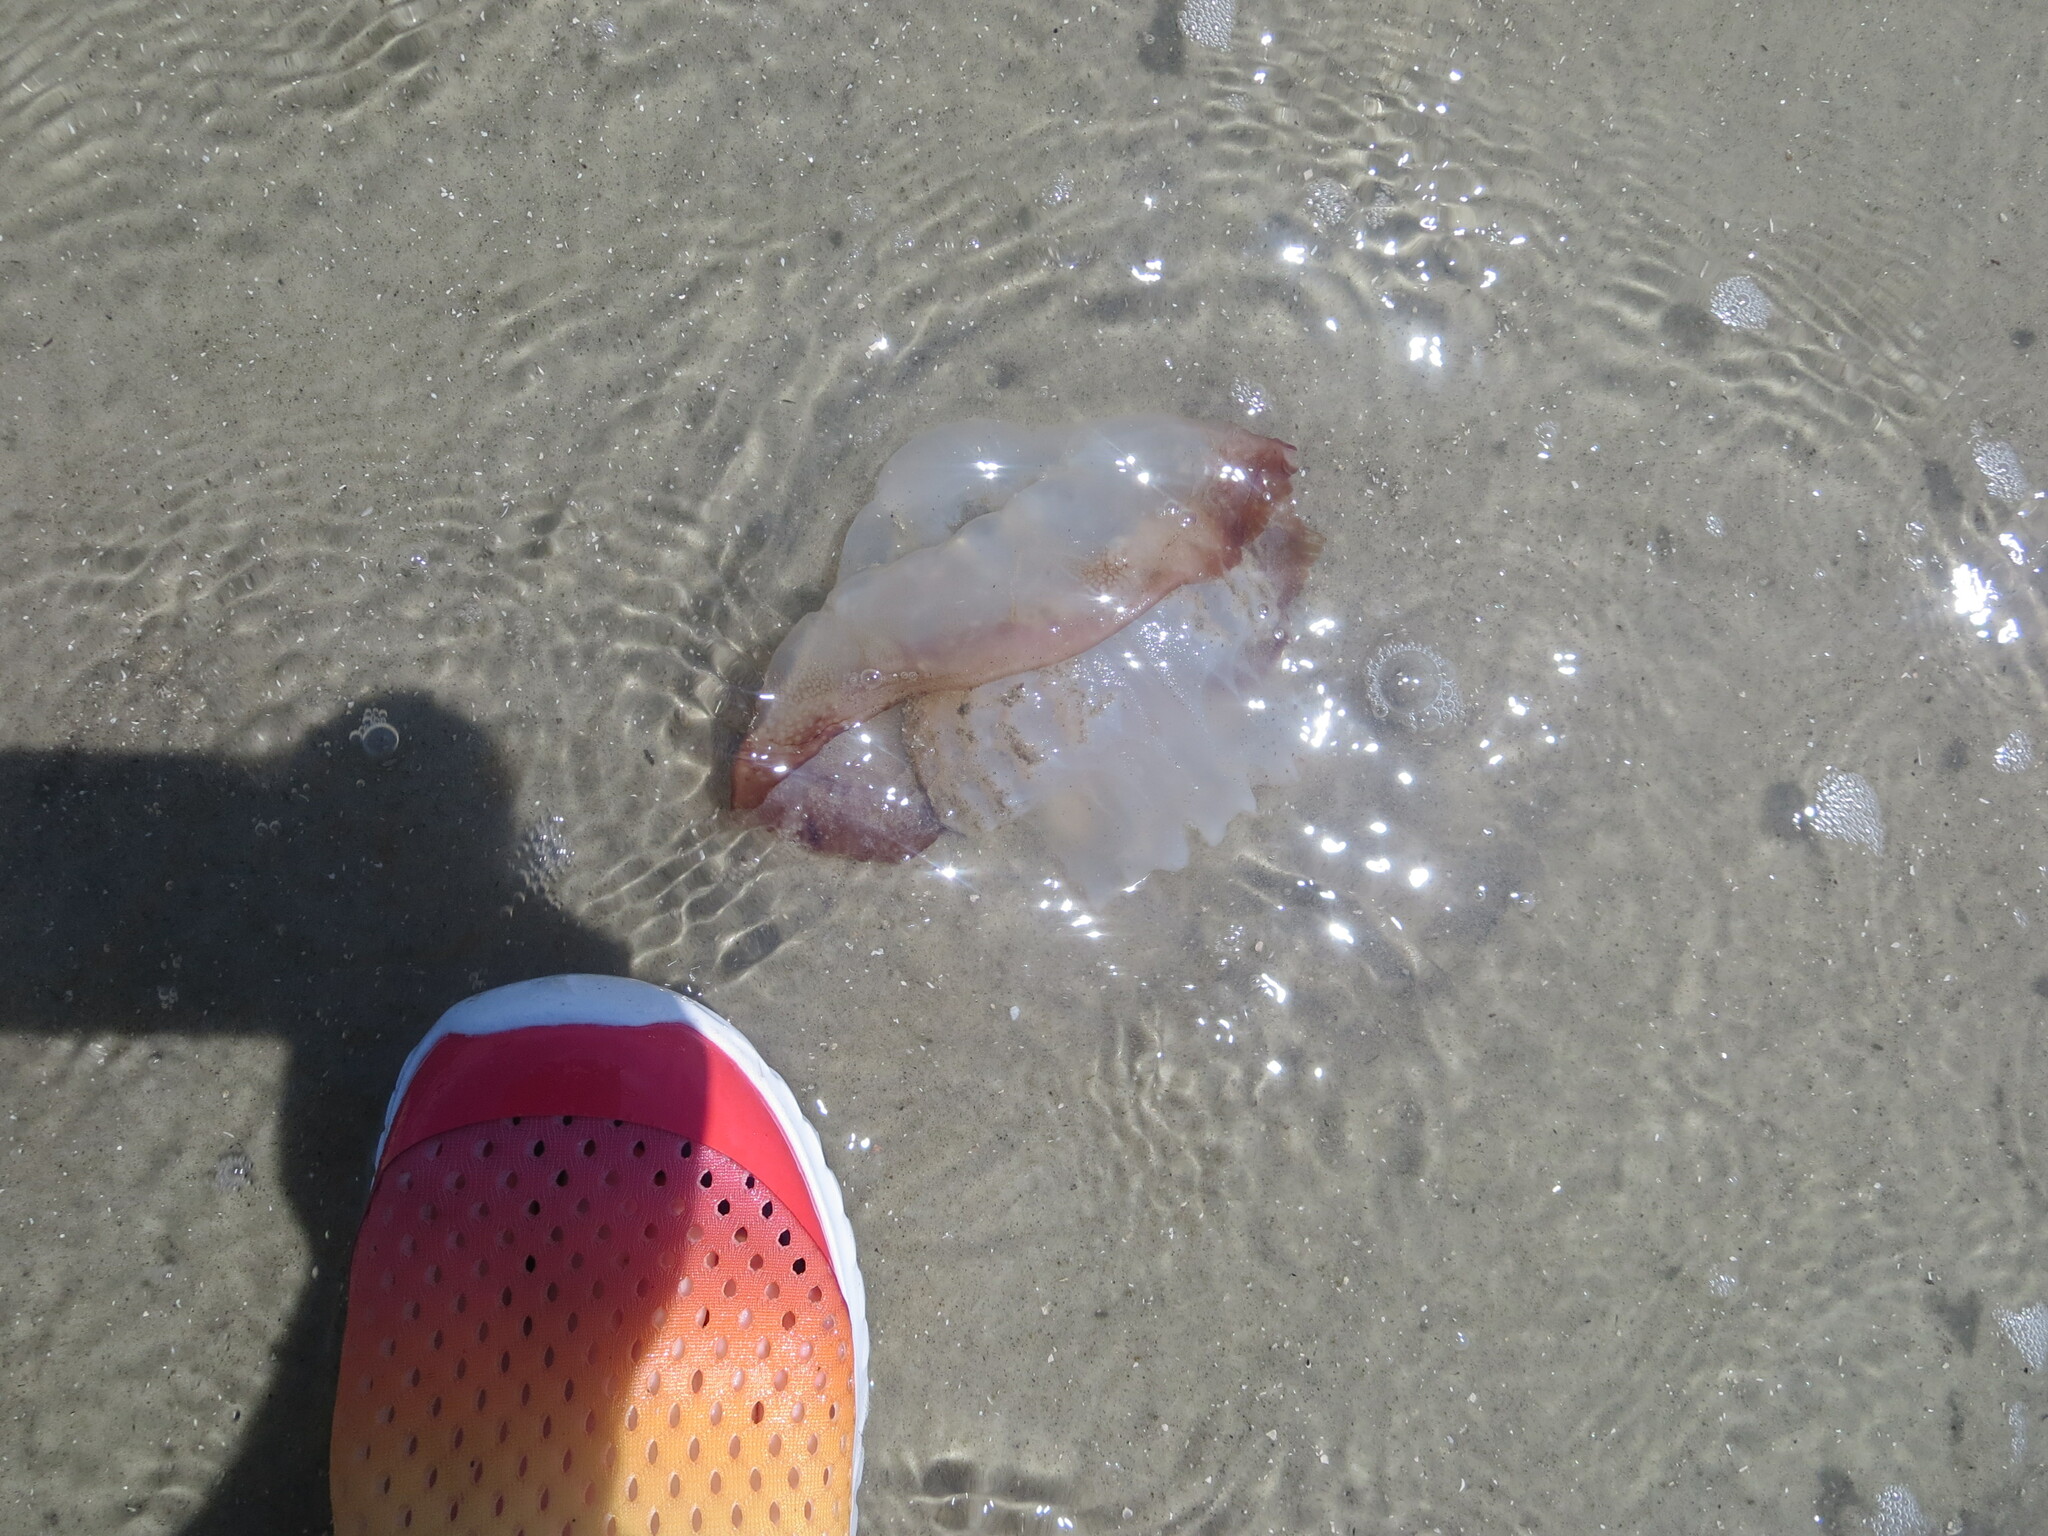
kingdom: Animalia
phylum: Cnidaria
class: Scyphozoa
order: Rhizostomeae
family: Stomolophidae
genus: Stomolophus
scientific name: Stomolophus meleagris
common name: Cabbagehead
